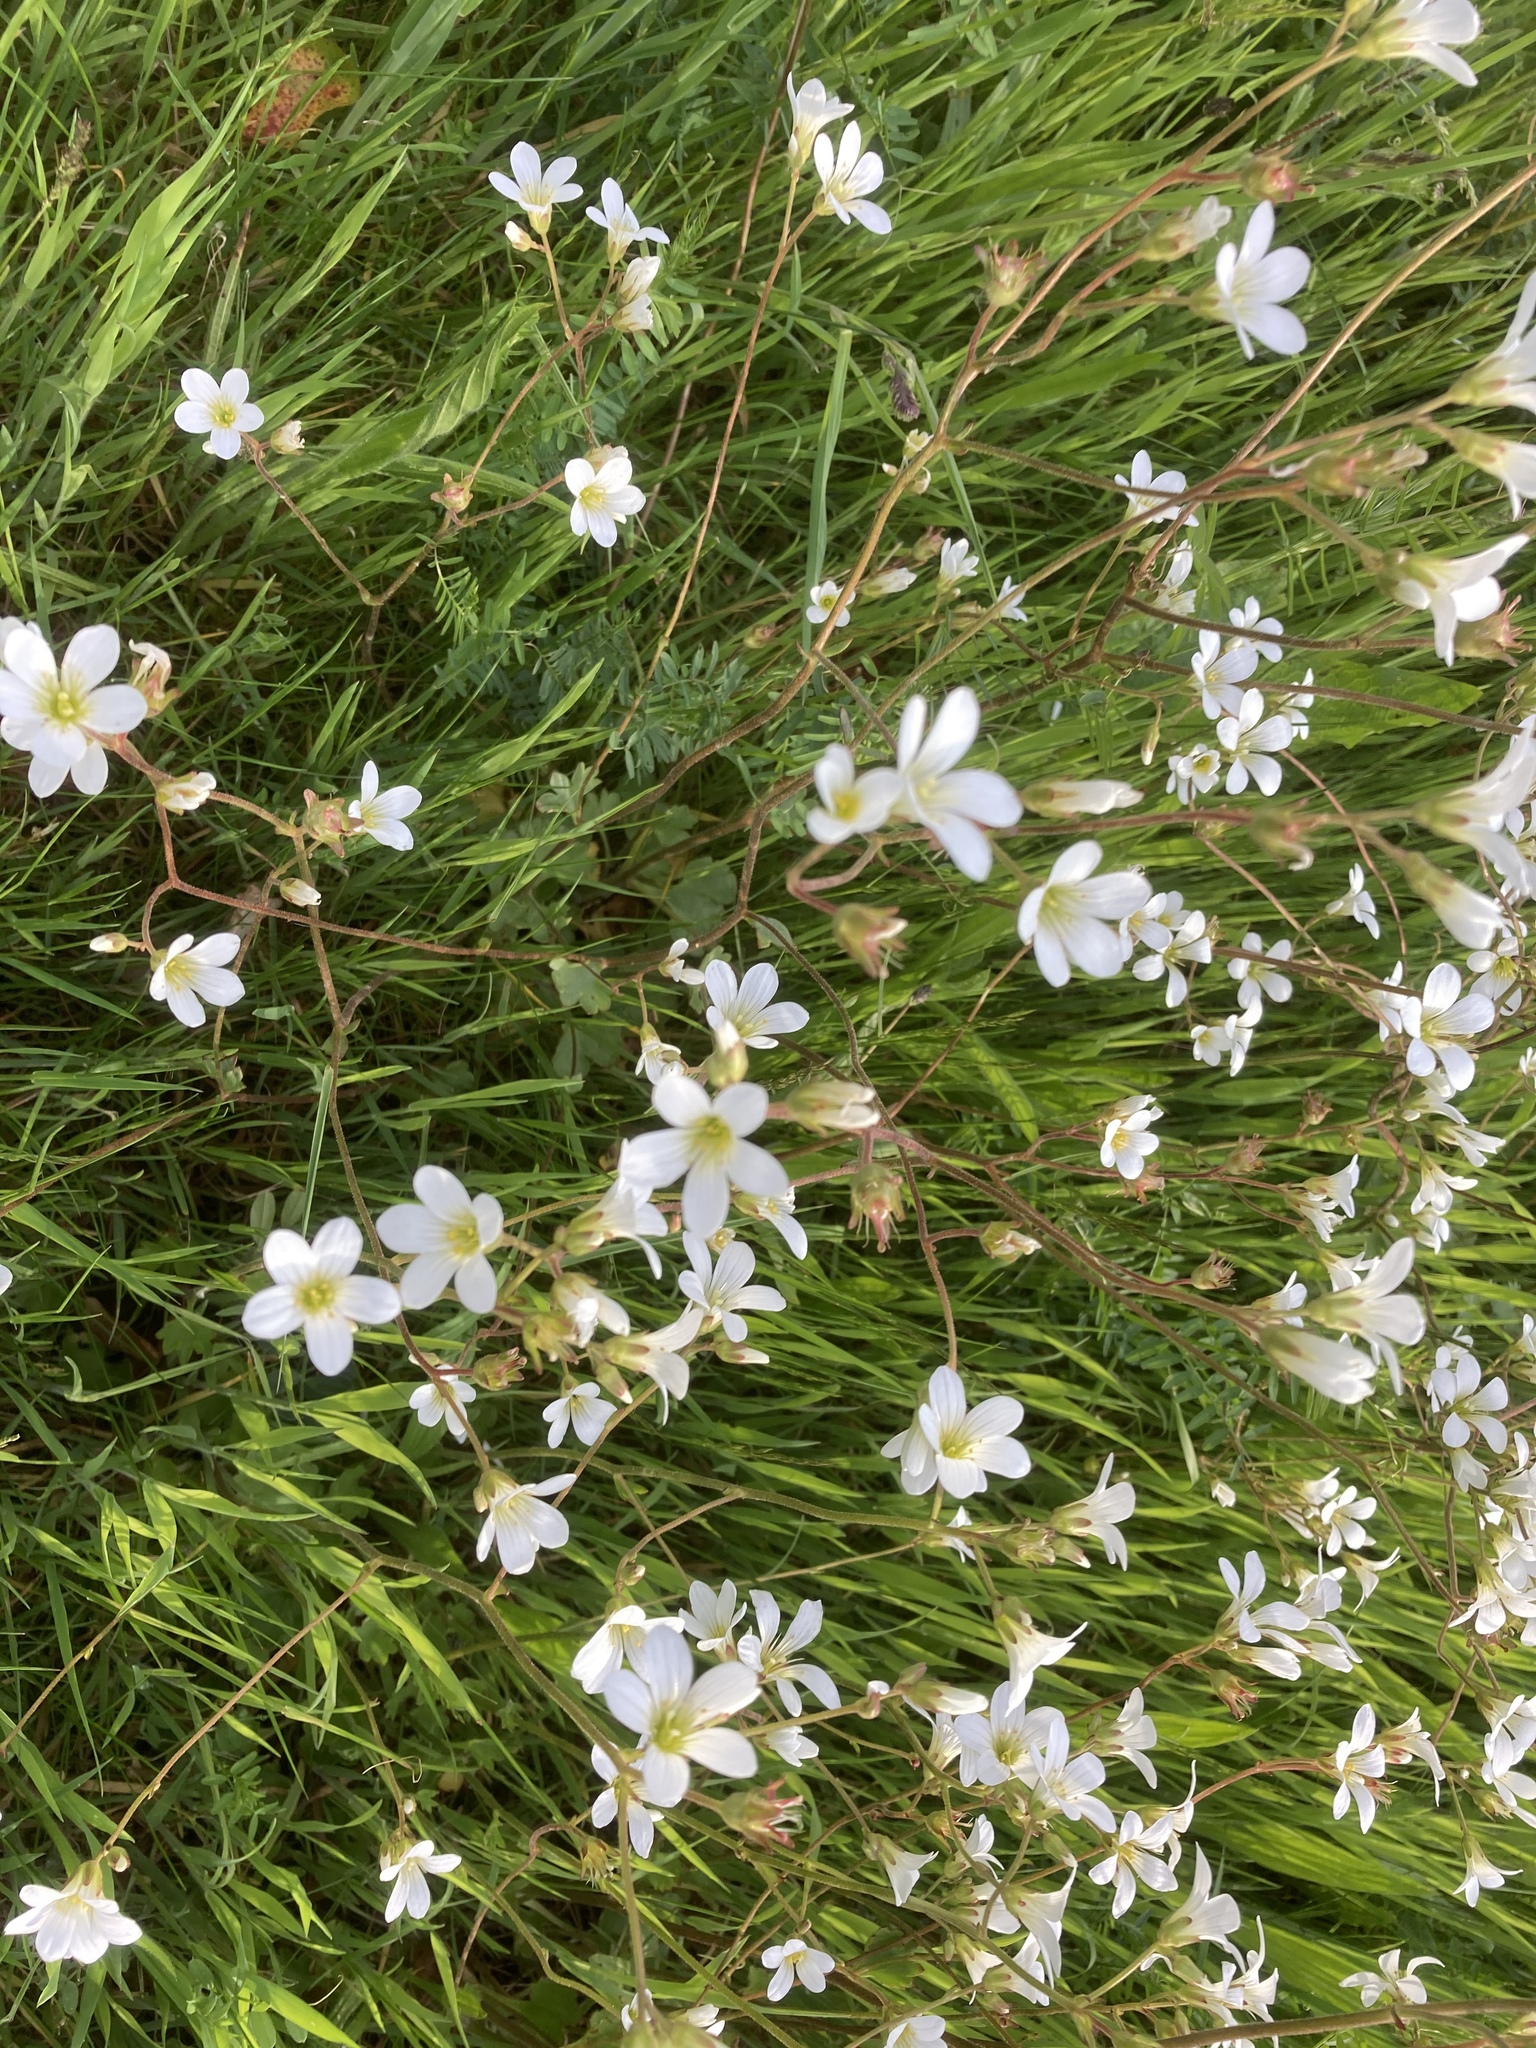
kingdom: Plantae
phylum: Tracheophyta
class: Magnoliopsida
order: Saxifragales
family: Saxifragaceae
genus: Saxifraga
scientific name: Saxifraga granulata
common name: Meadow saxifrage
